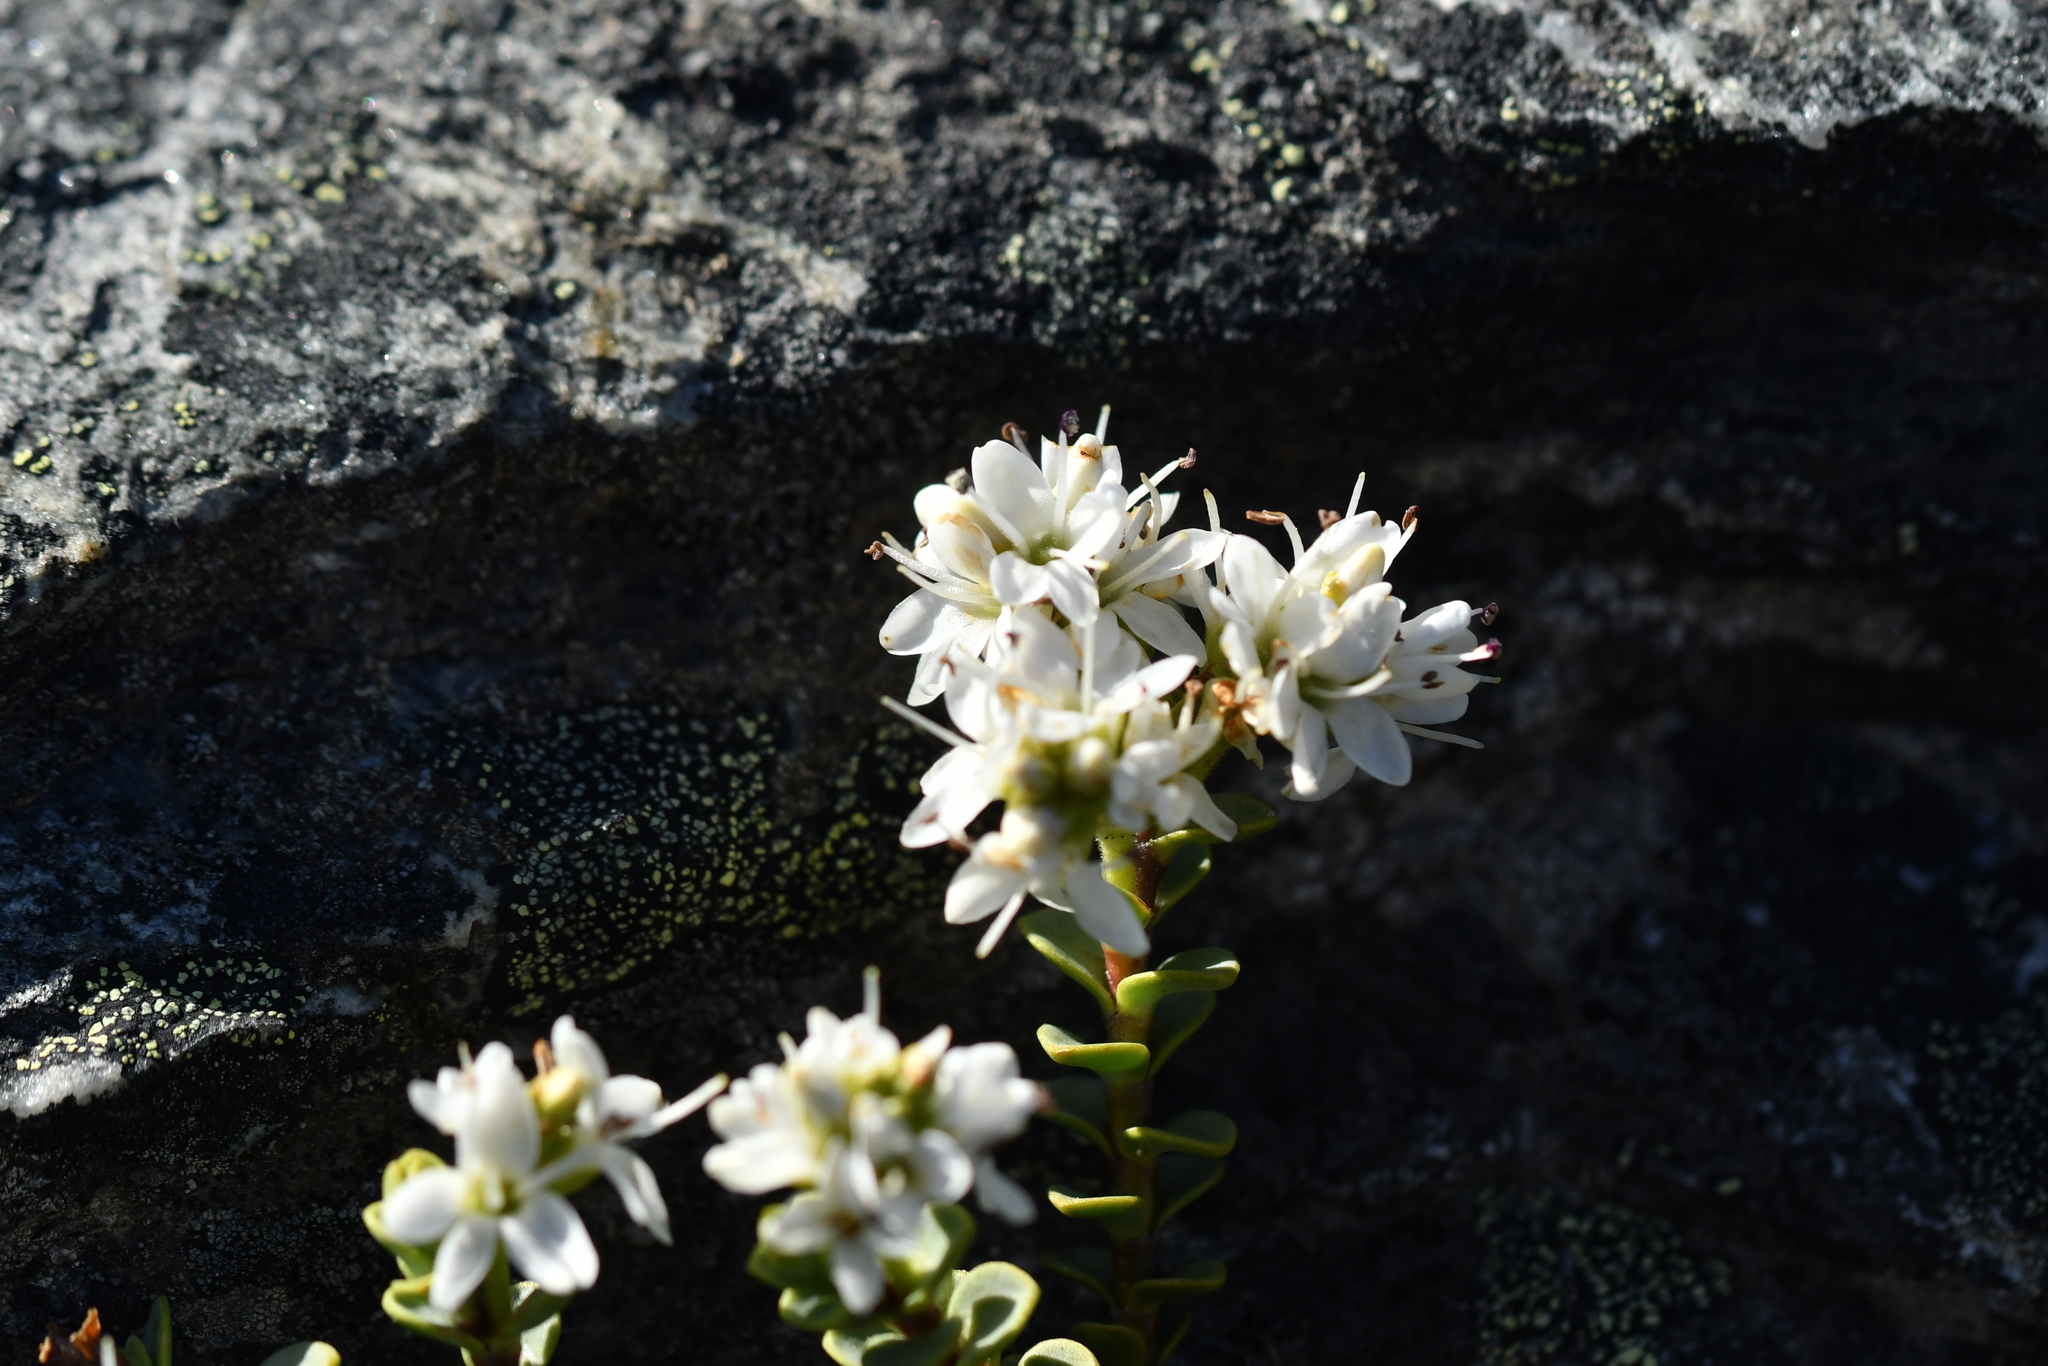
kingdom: Plantae
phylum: Tracheophyta
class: Magnoliopsida
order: Lamiales
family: Plantaginaceae
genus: Veronica
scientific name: Veronica buchananii
